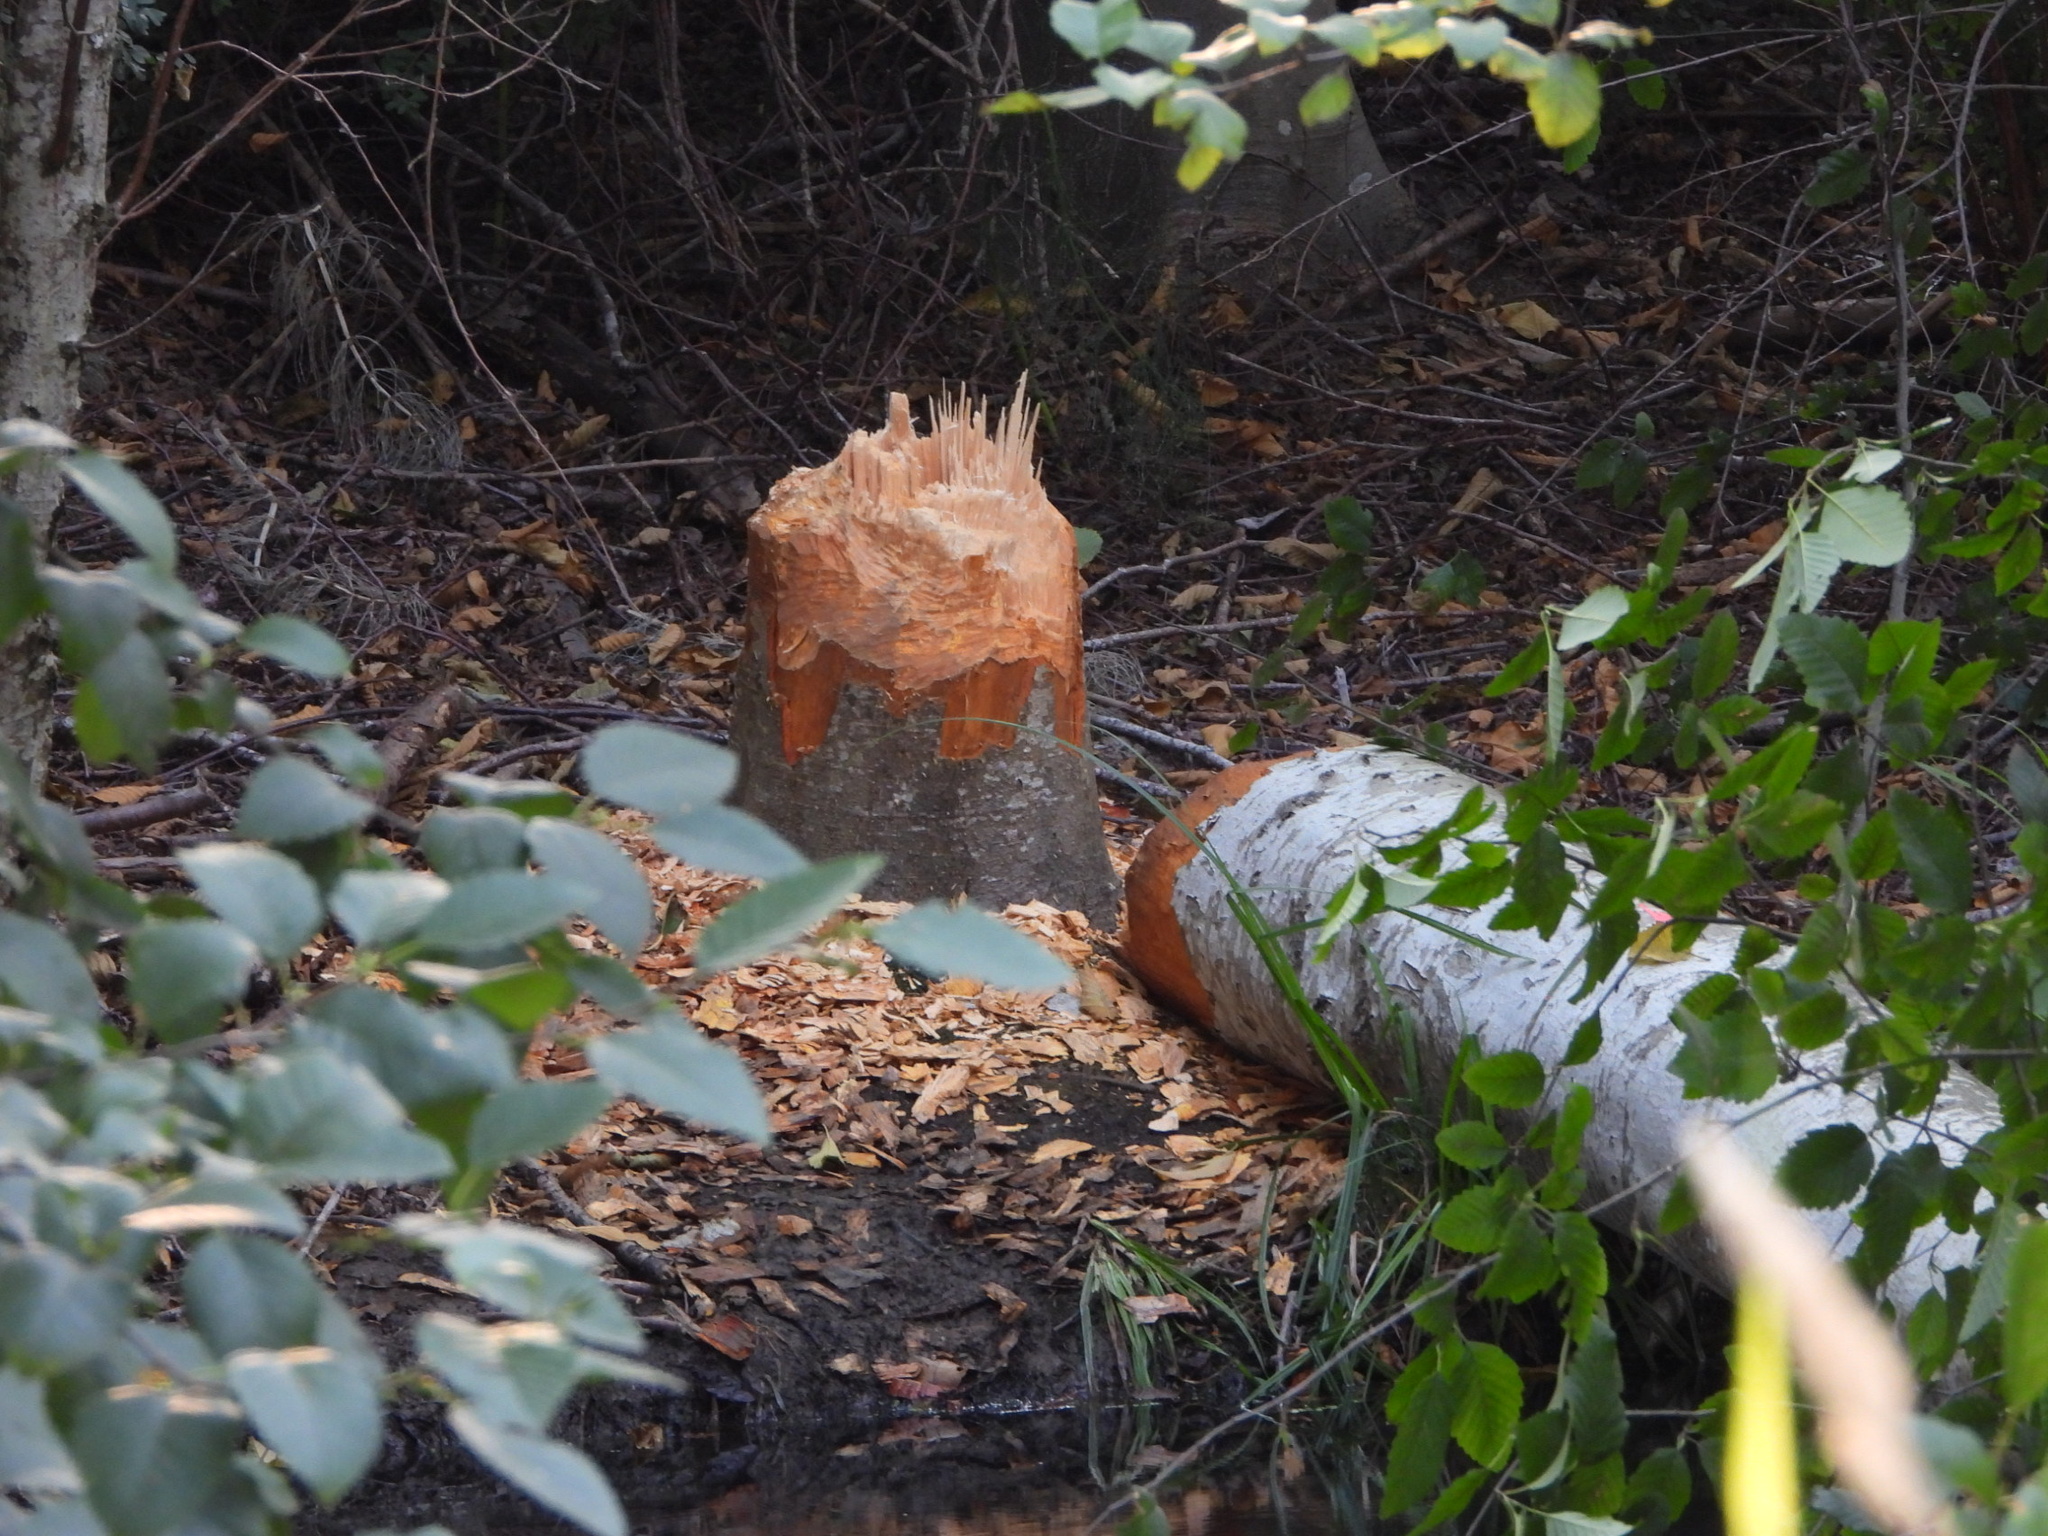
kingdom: Animalia
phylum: Chordata
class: Mammalia
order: Rodentia
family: Castoridae
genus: Castor
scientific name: Castor canadensis
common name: American beaver
